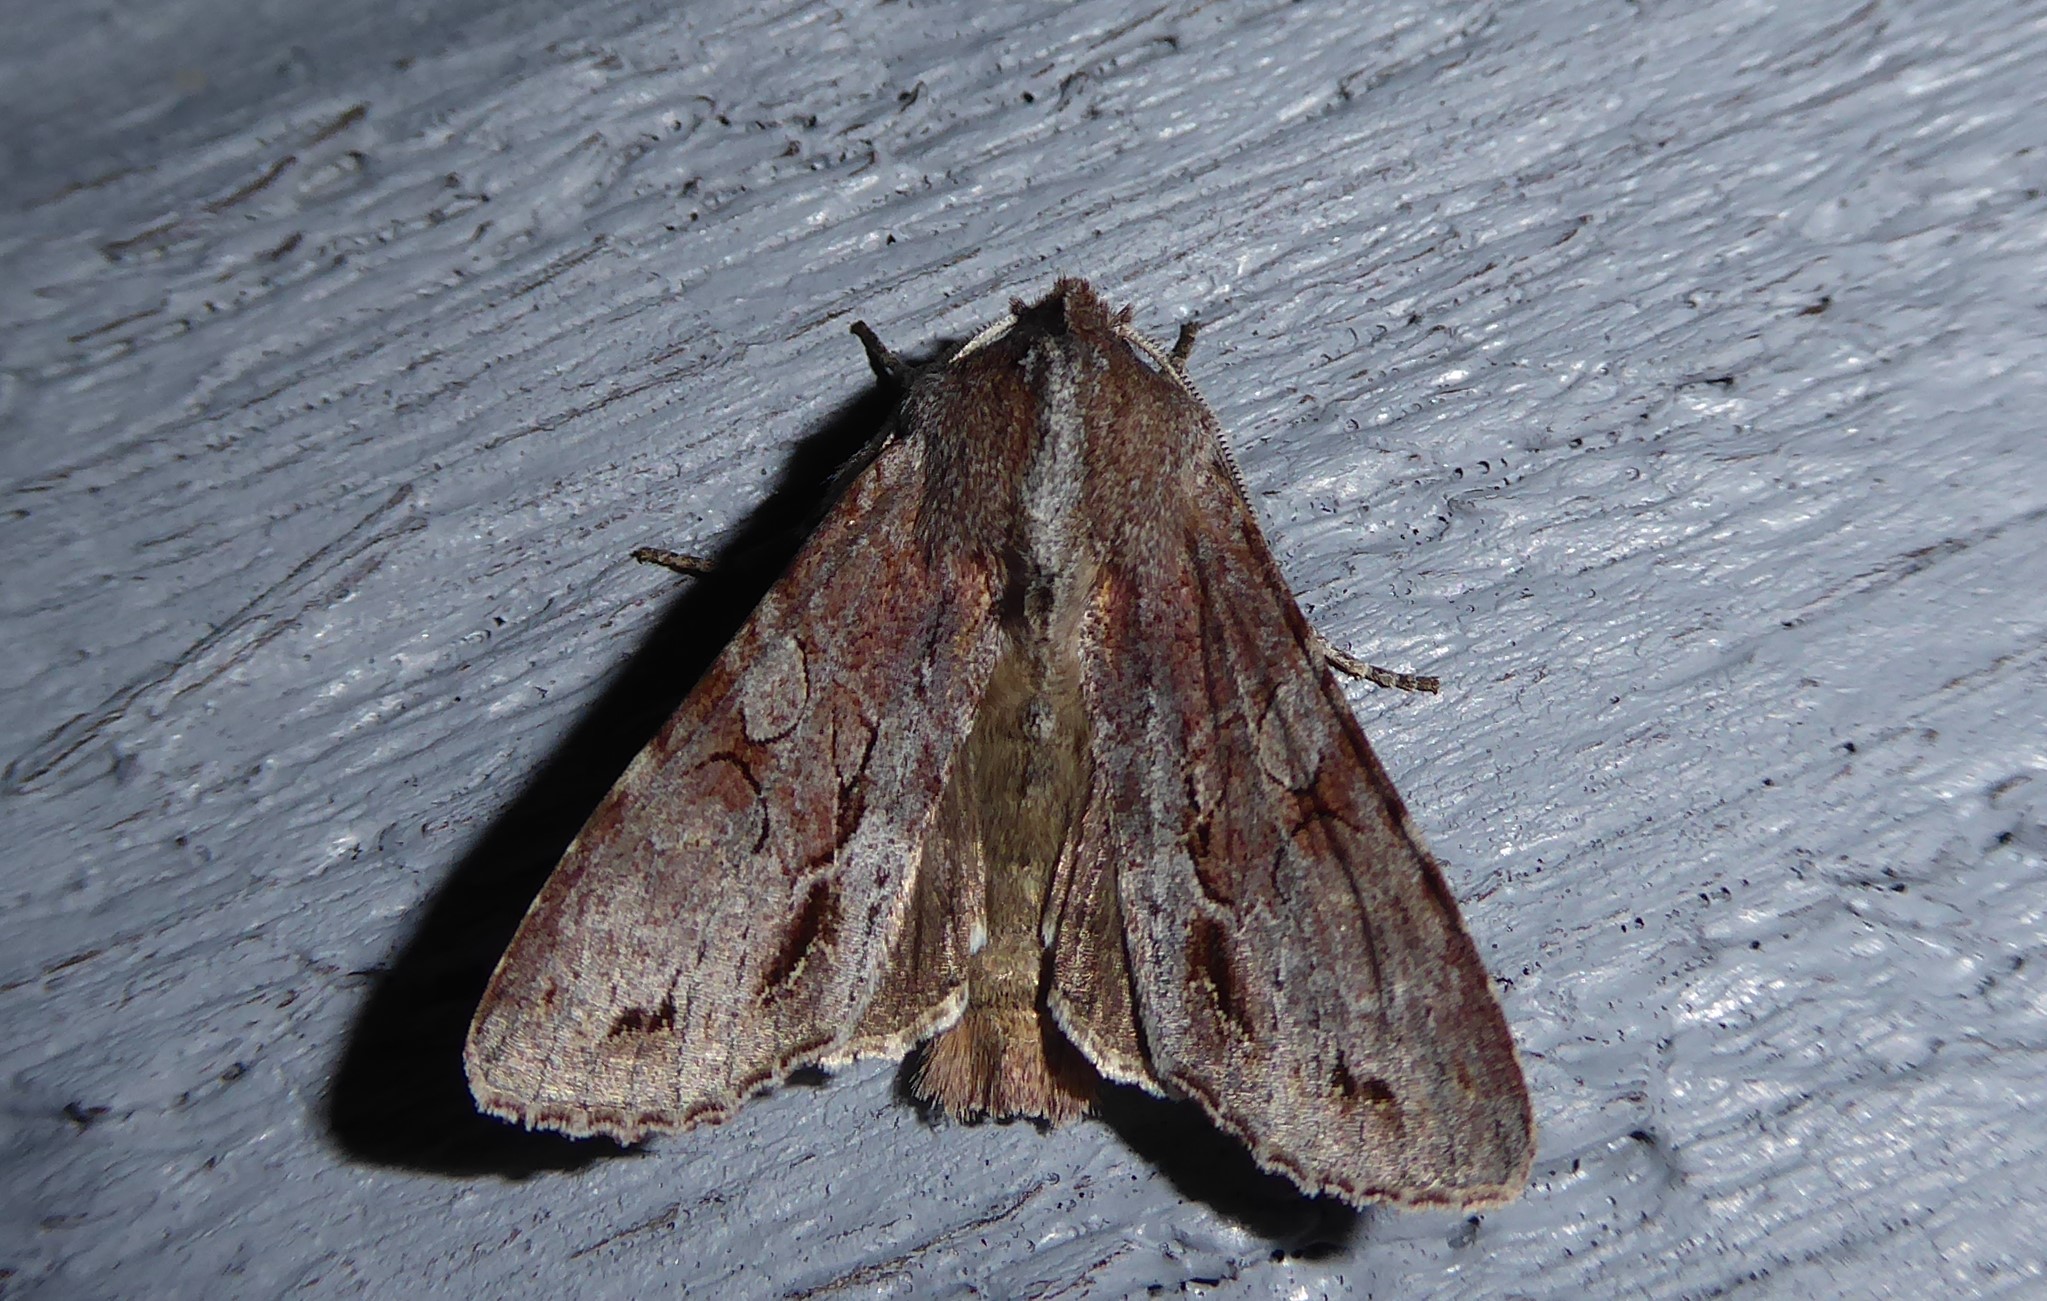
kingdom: Animalia
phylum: Arthropoda
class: Insecta
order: Lepidoptera
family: Noctuidae
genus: Ichneutica
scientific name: Ichneutica
